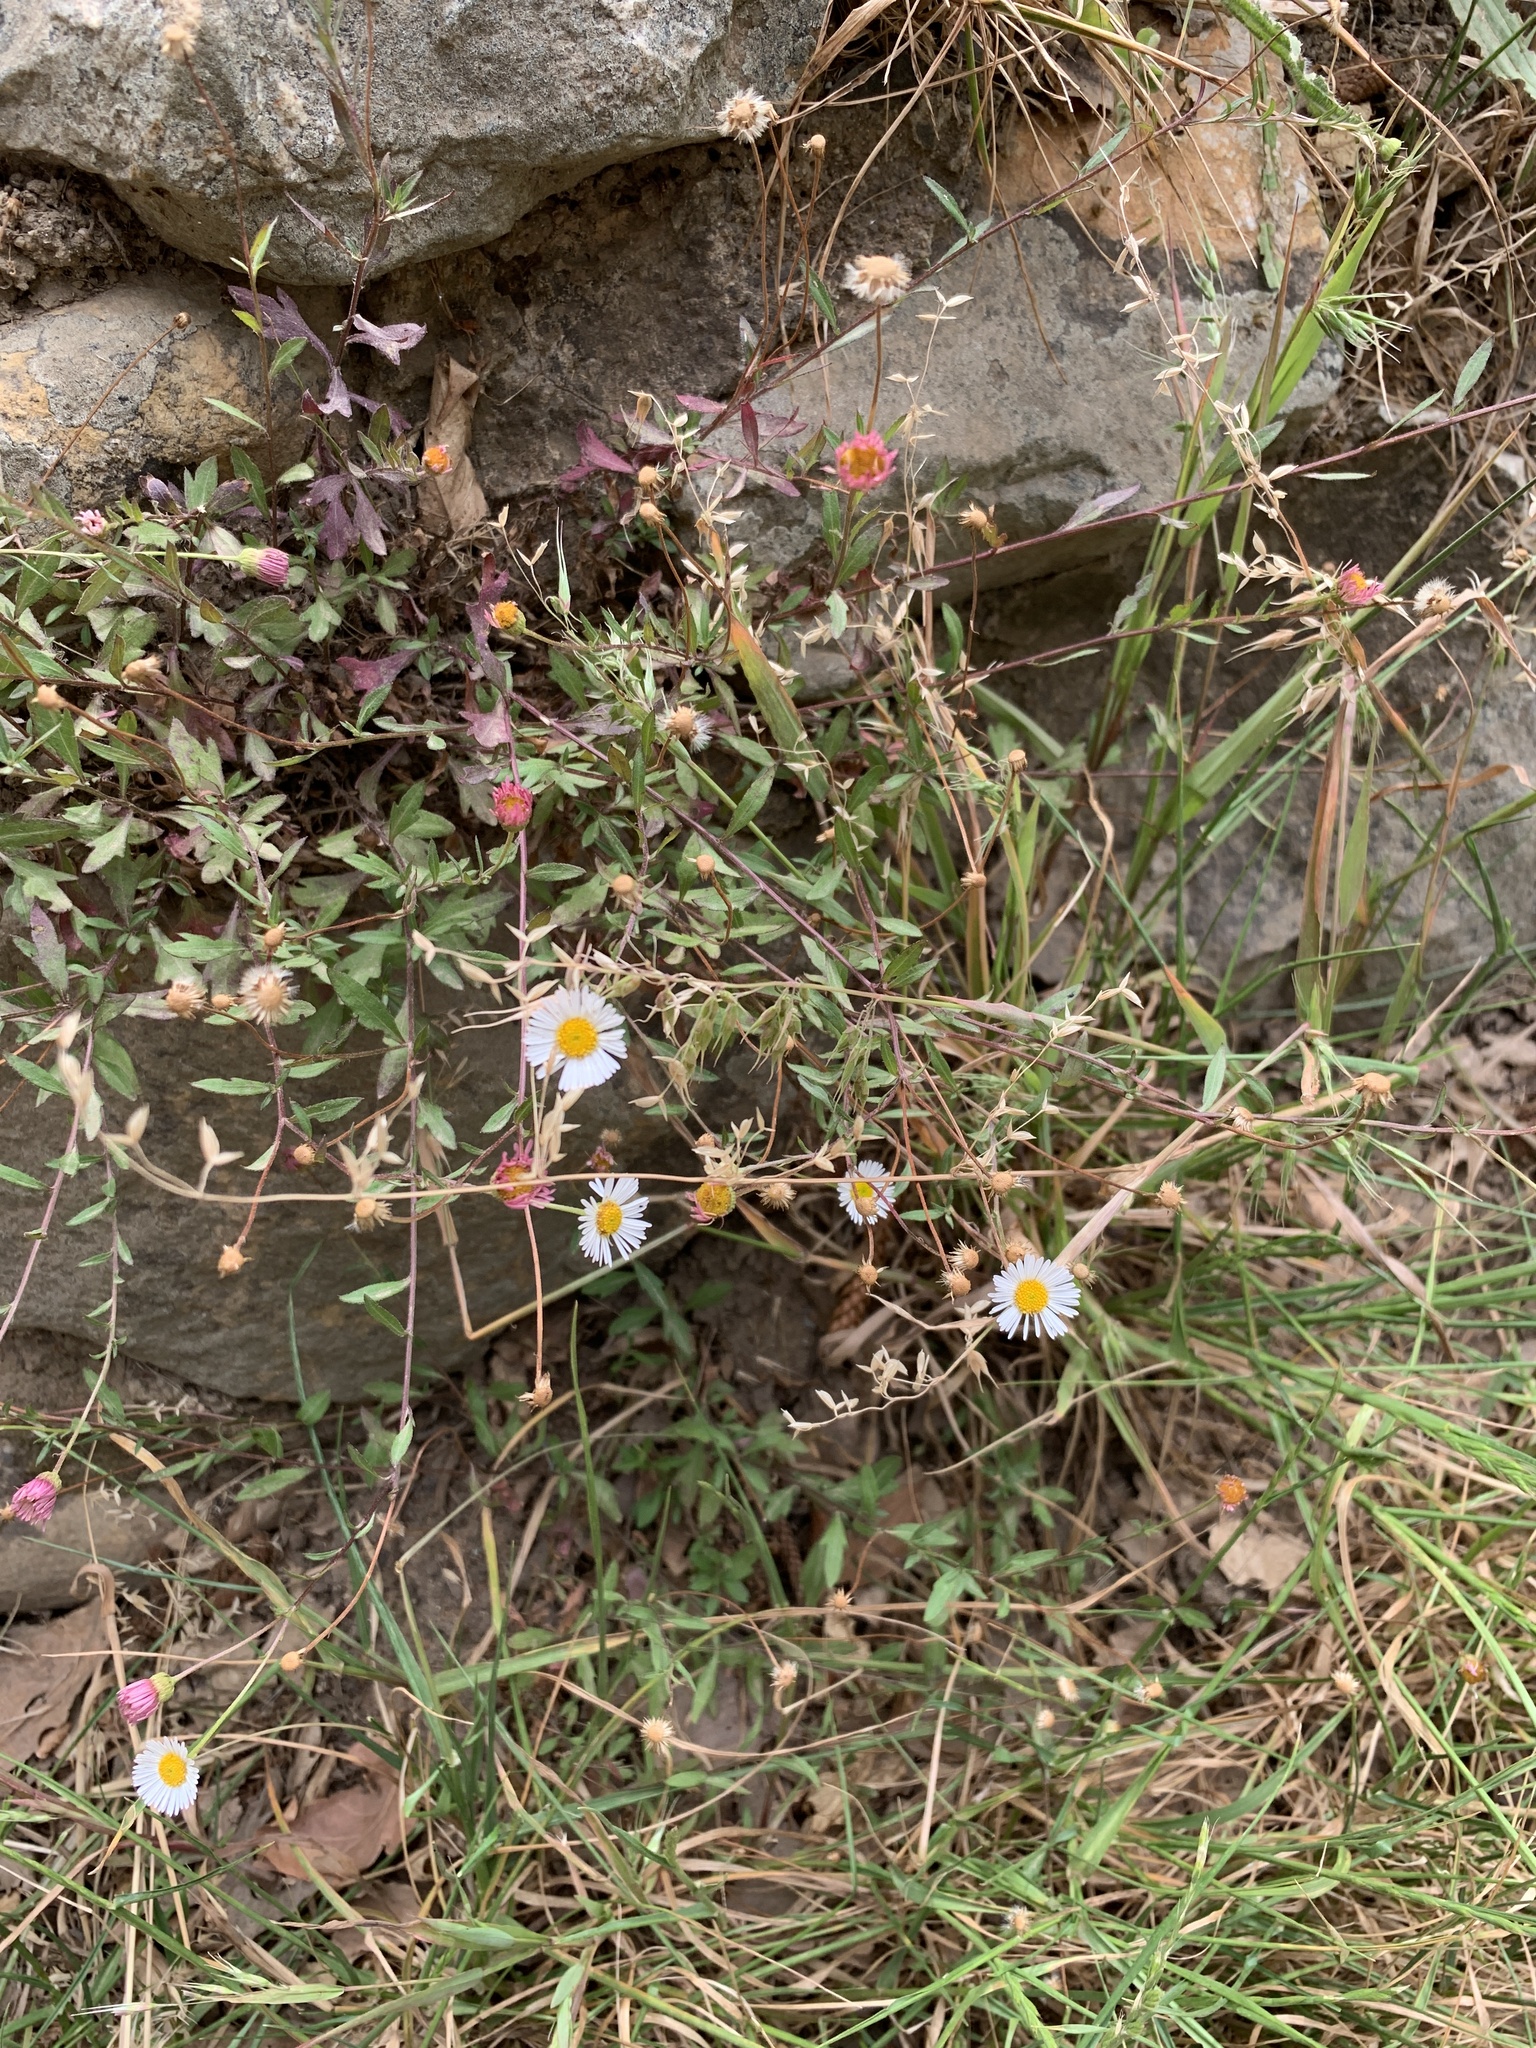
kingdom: Plantae
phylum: Tracheophyta
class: Magnoliopsida
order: Asterales
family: Asteraceae
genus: Erigeron
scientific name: Erigeron karvinskianus
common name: Mexican fleabane
